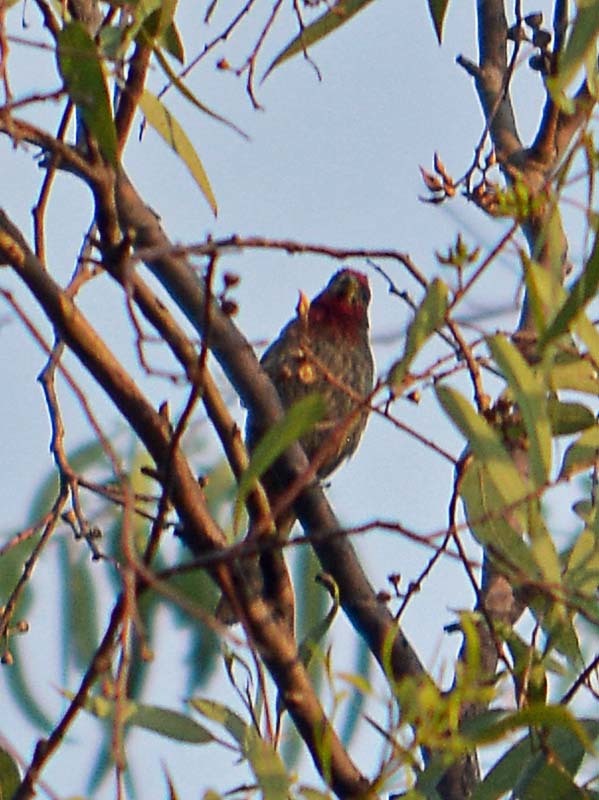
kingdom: Animalia
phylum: Chordata
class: Aves
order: Passeriformes
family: Fringillidae
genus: Haemorhous
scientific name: Haemorhous mexicanus
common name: House finch
